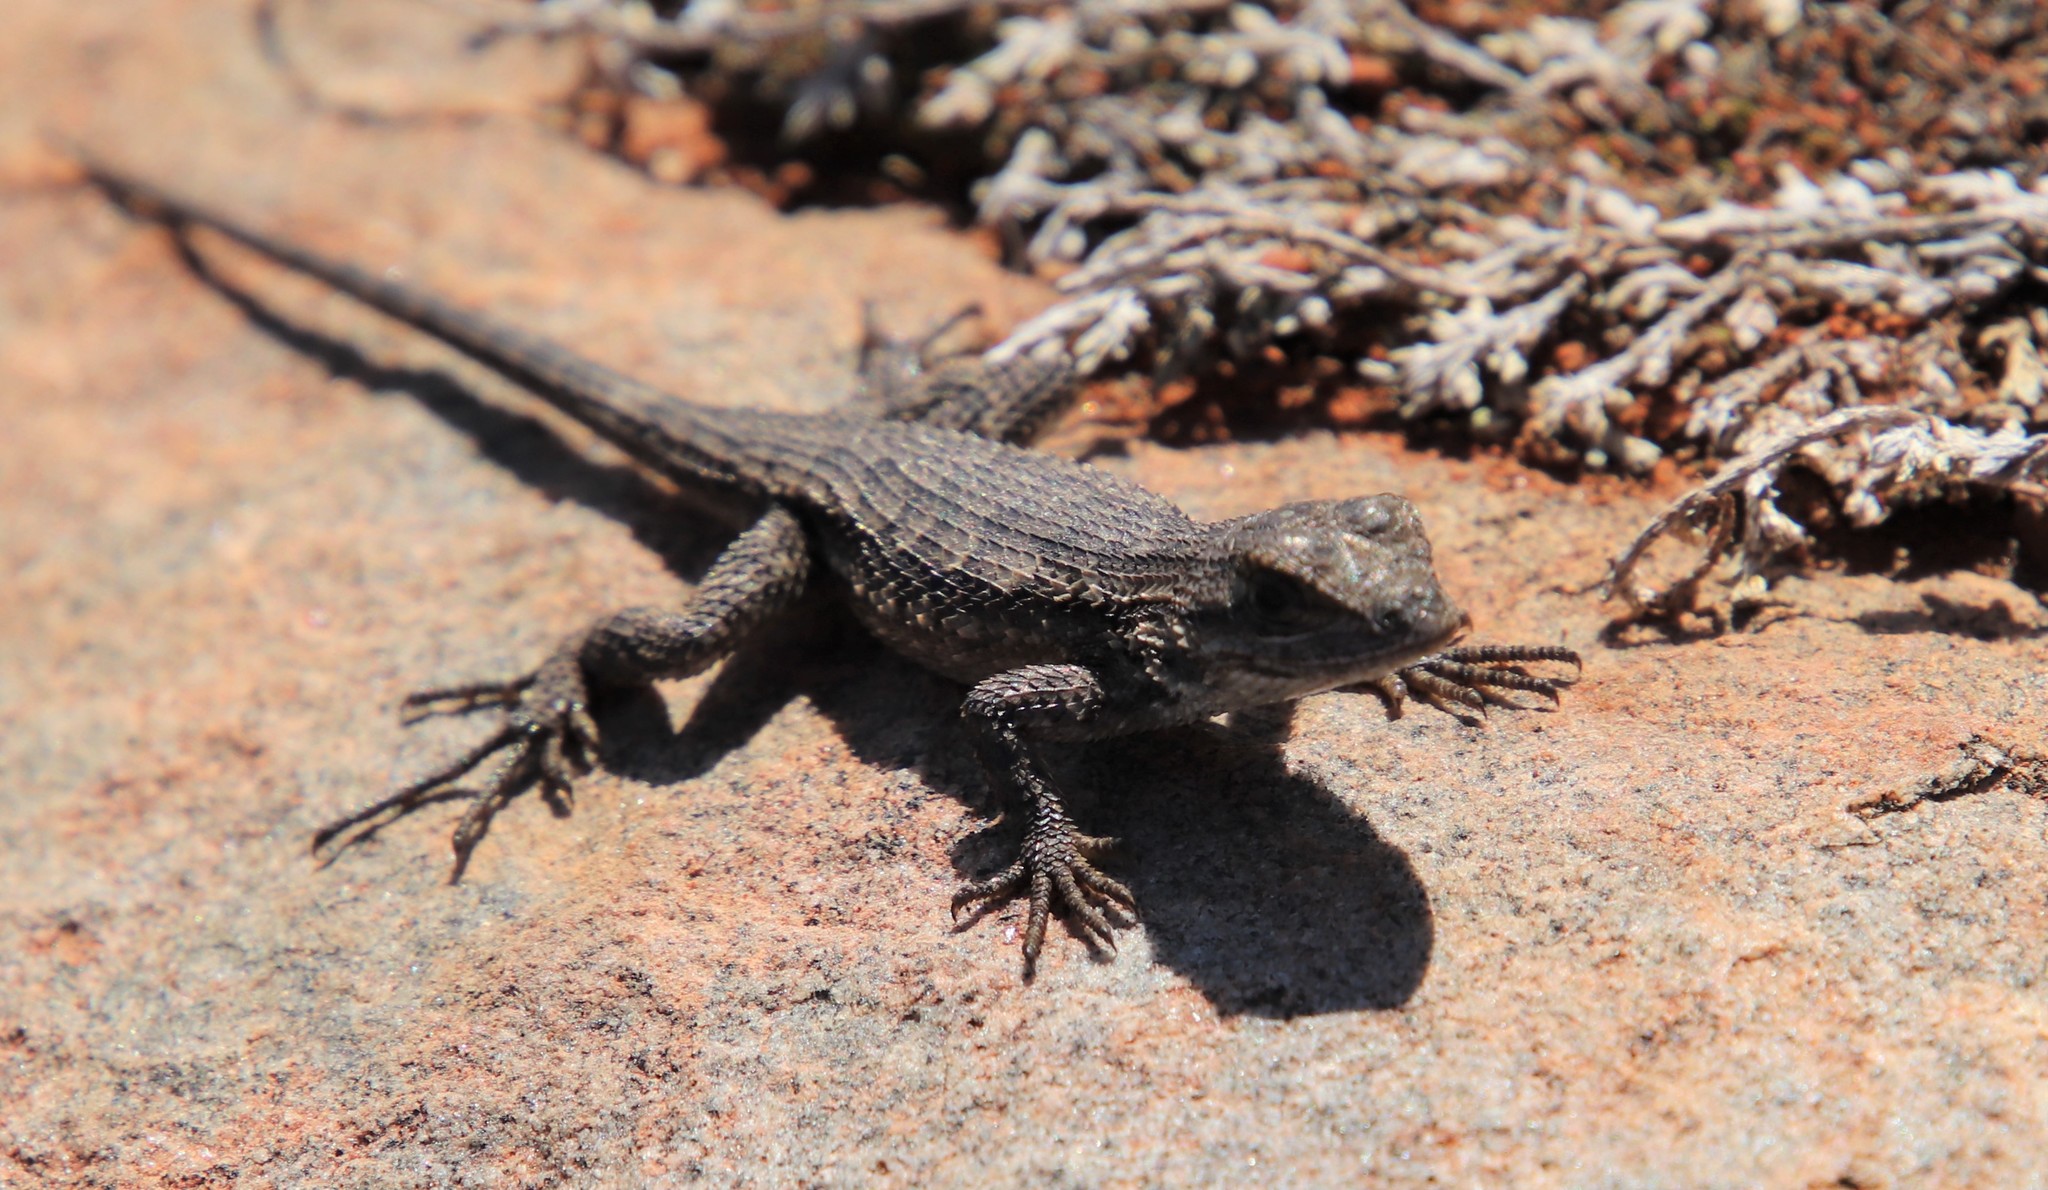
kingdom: Animalia
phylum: Chordata
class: Squamata
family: Phrynosomatidae
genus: Sceloporus
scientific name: Sceloporus occidentalis
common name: Western fence lizard
